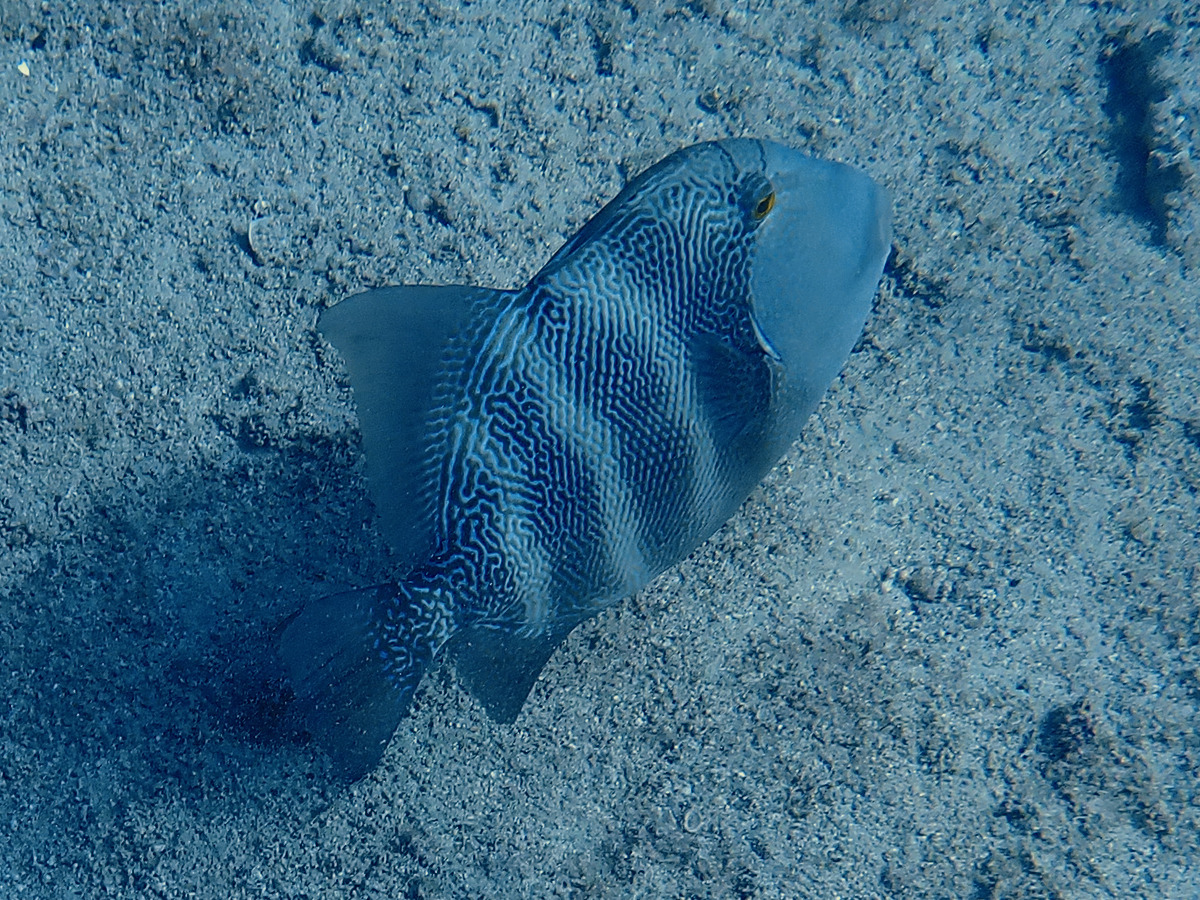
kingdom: Animalia
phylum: Chordata
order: Tetraodontiformes
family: Balistidae
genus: Pseudobalistes
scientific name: Pseudobalistes naufragium
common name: Blunthead triggerfish
